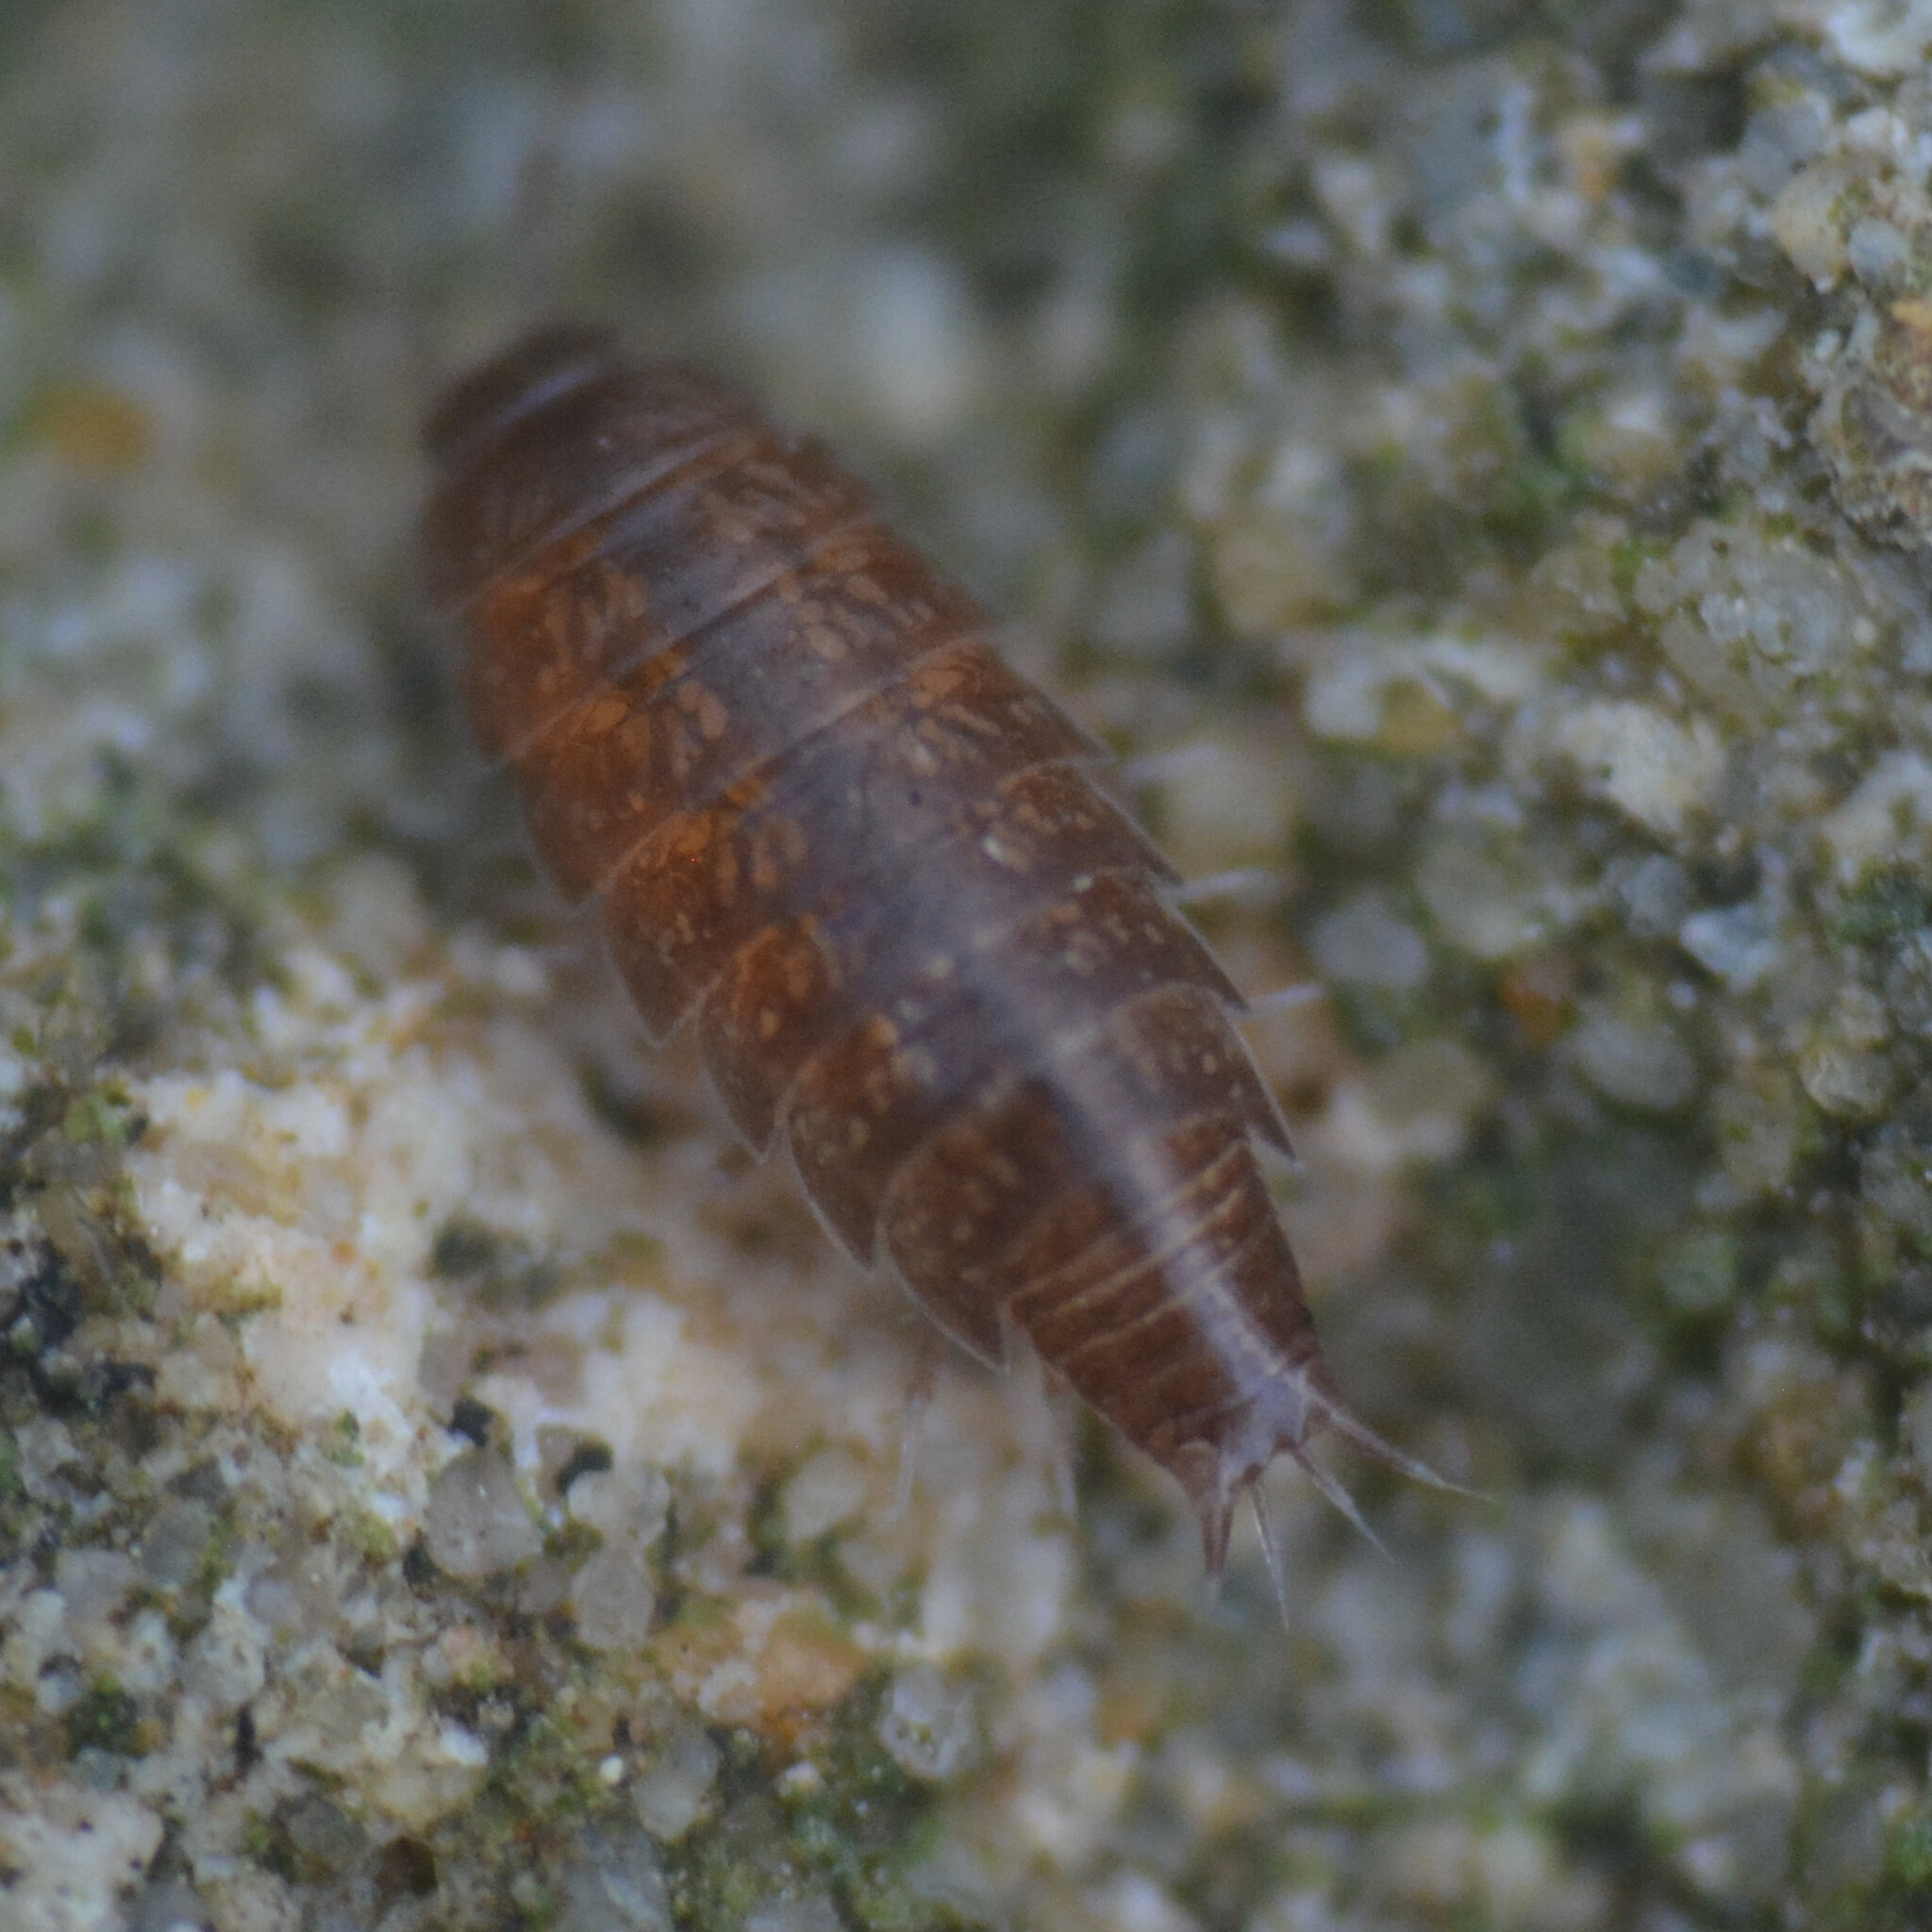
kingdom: Animalia
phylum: Arthropoda
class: Malacostraca
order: Isopoda
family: Trichoniscidae
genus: Trichoniscus
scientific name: Trichoniscus
